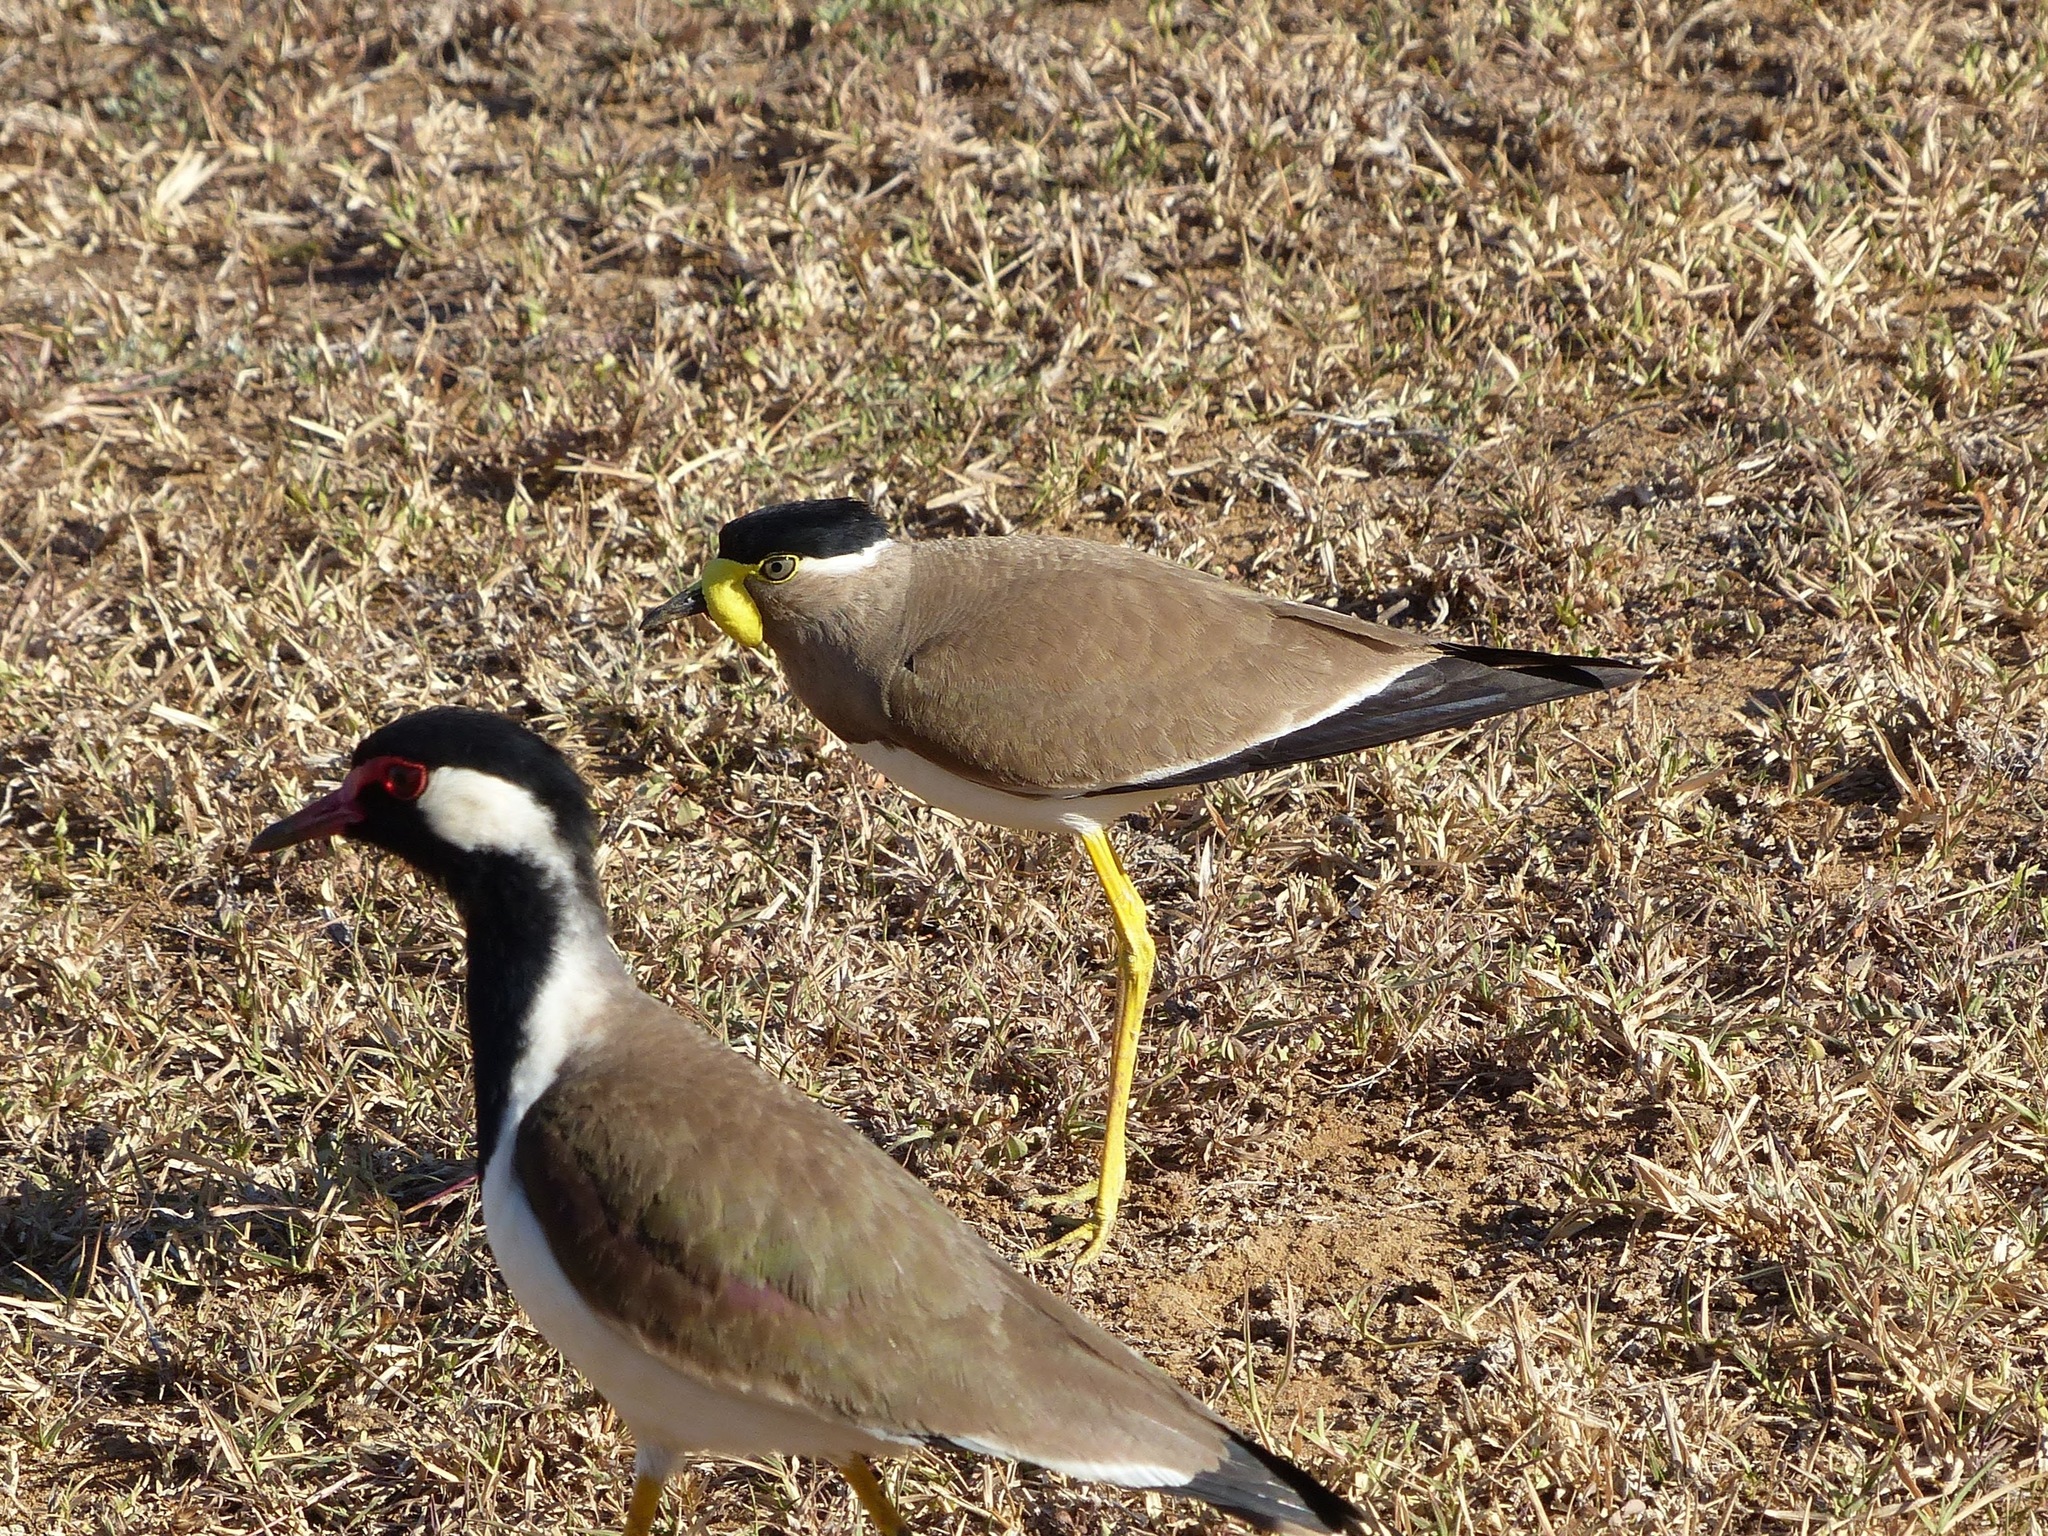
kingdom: Animalia
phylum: Chordata
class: Aves
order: Charadriiformes
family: Charadriidae
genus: Vanellus
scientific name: Vanellus malabaricus
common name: Yellow-wattled lapwing
